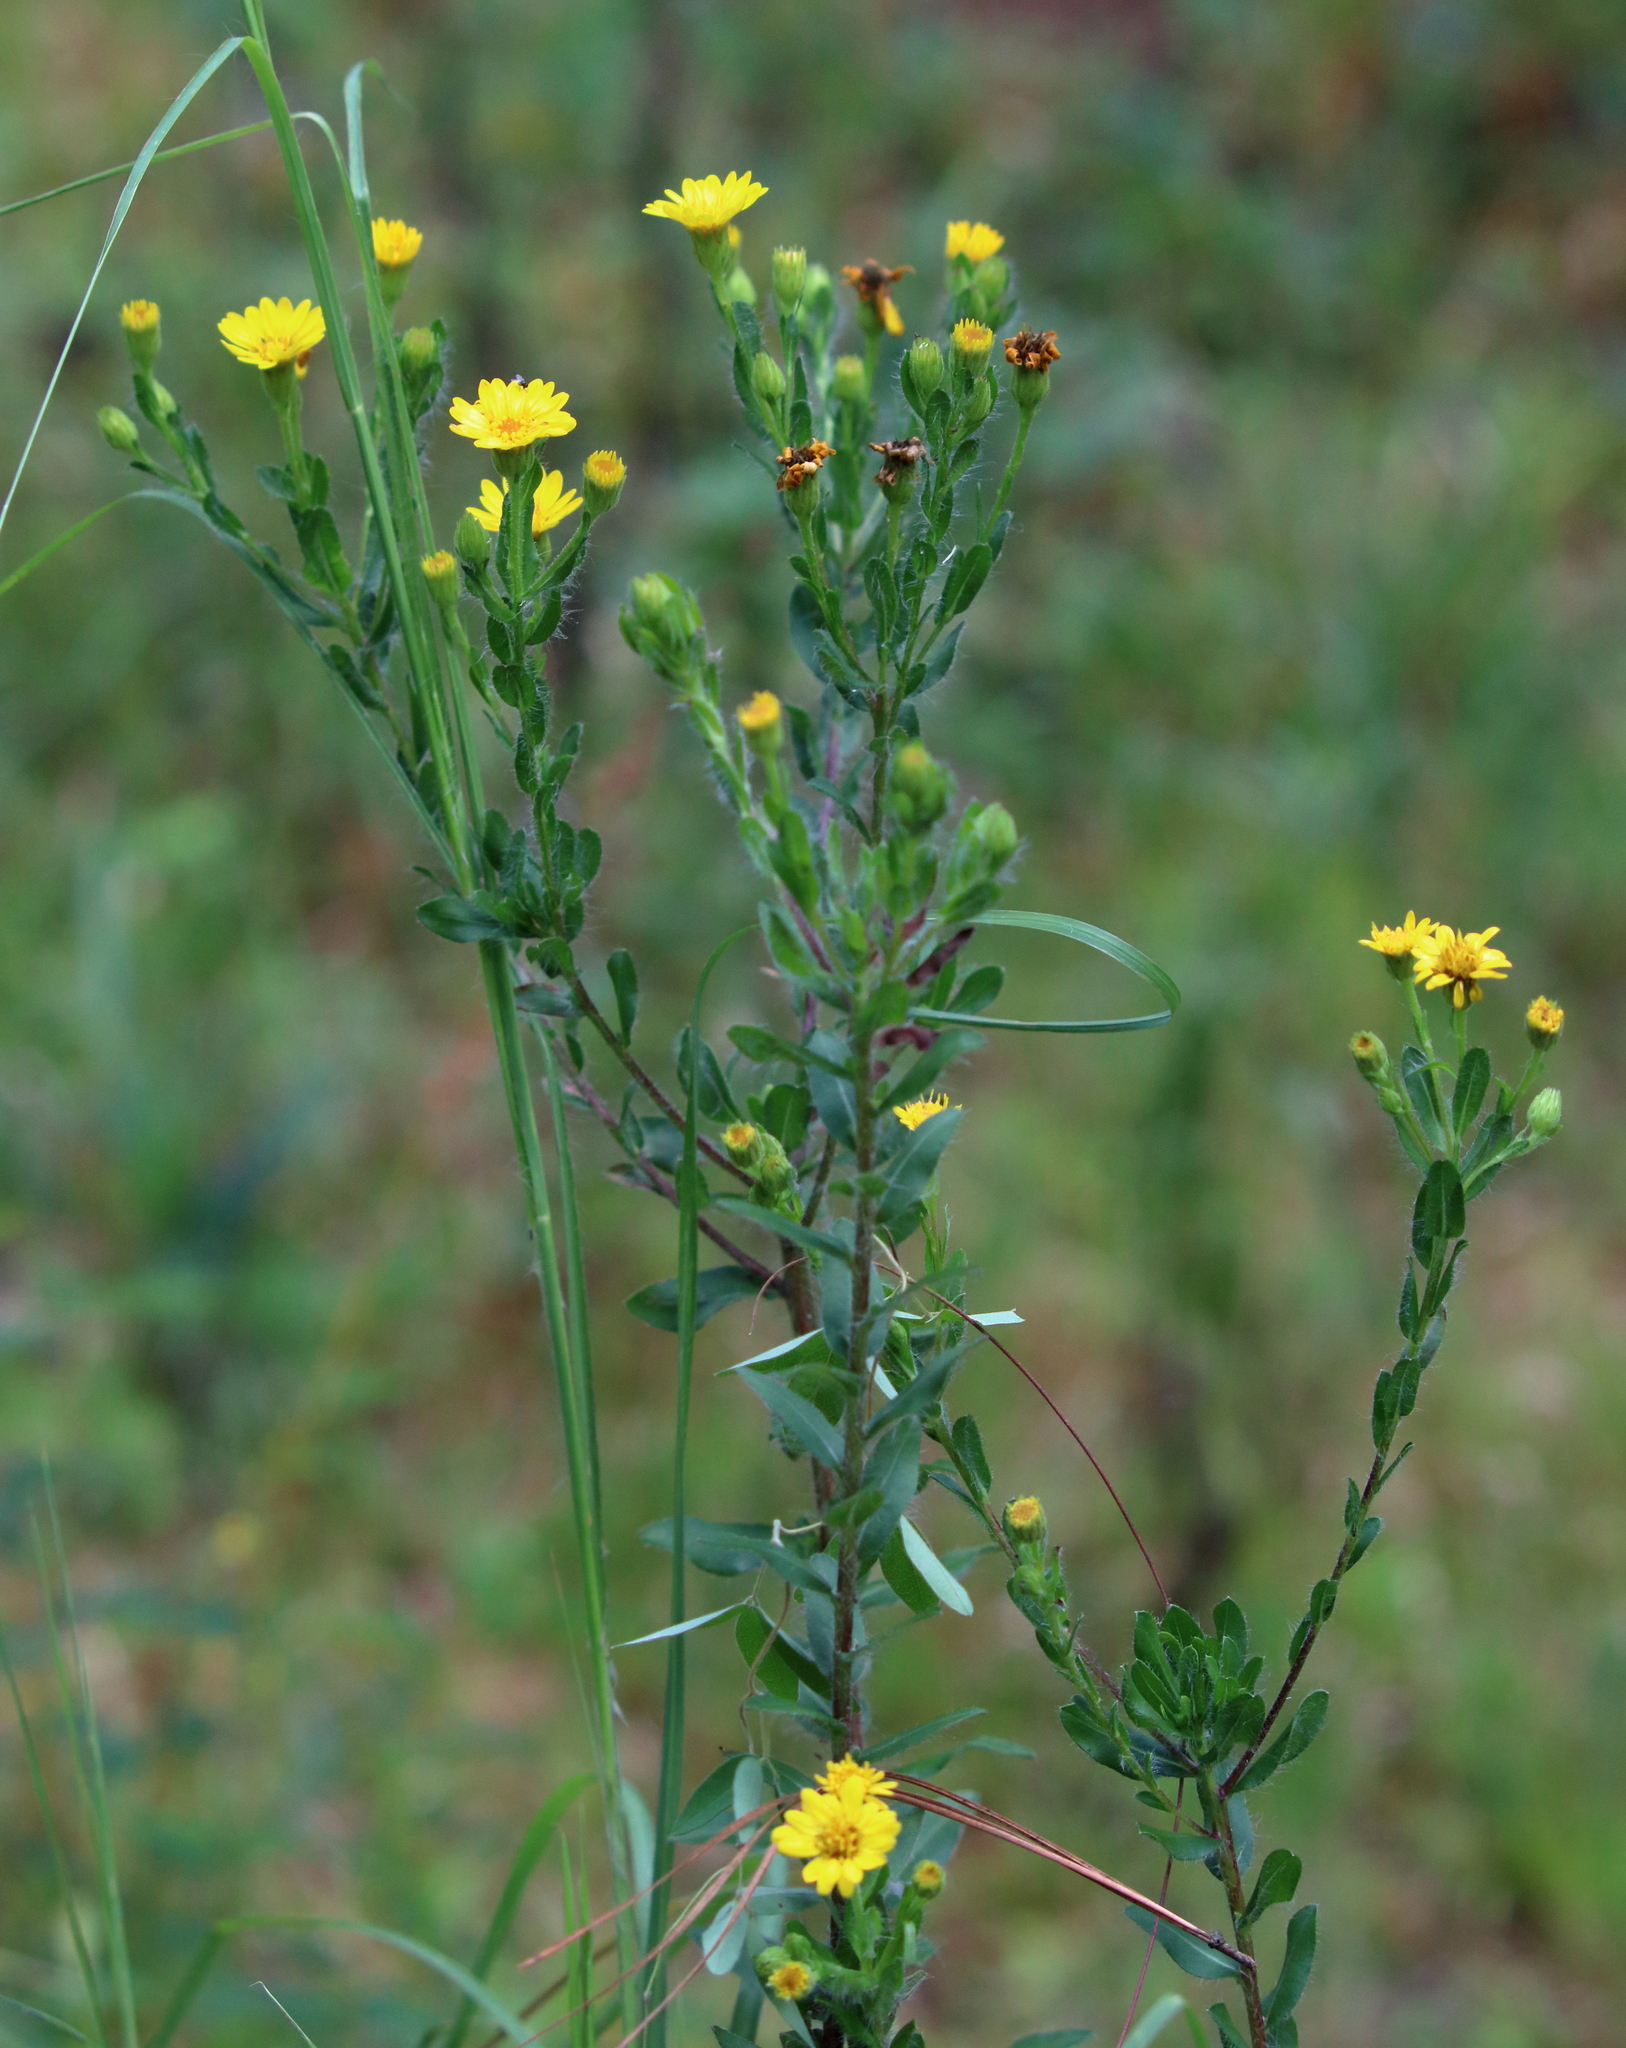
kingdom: Plantae
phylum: Tracheophyta
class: Magnoliopsida
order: Asterales
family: Asteraceae
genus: Chrysopsis
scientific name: Chrysopsis mariana
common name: Maryland golden-aster
